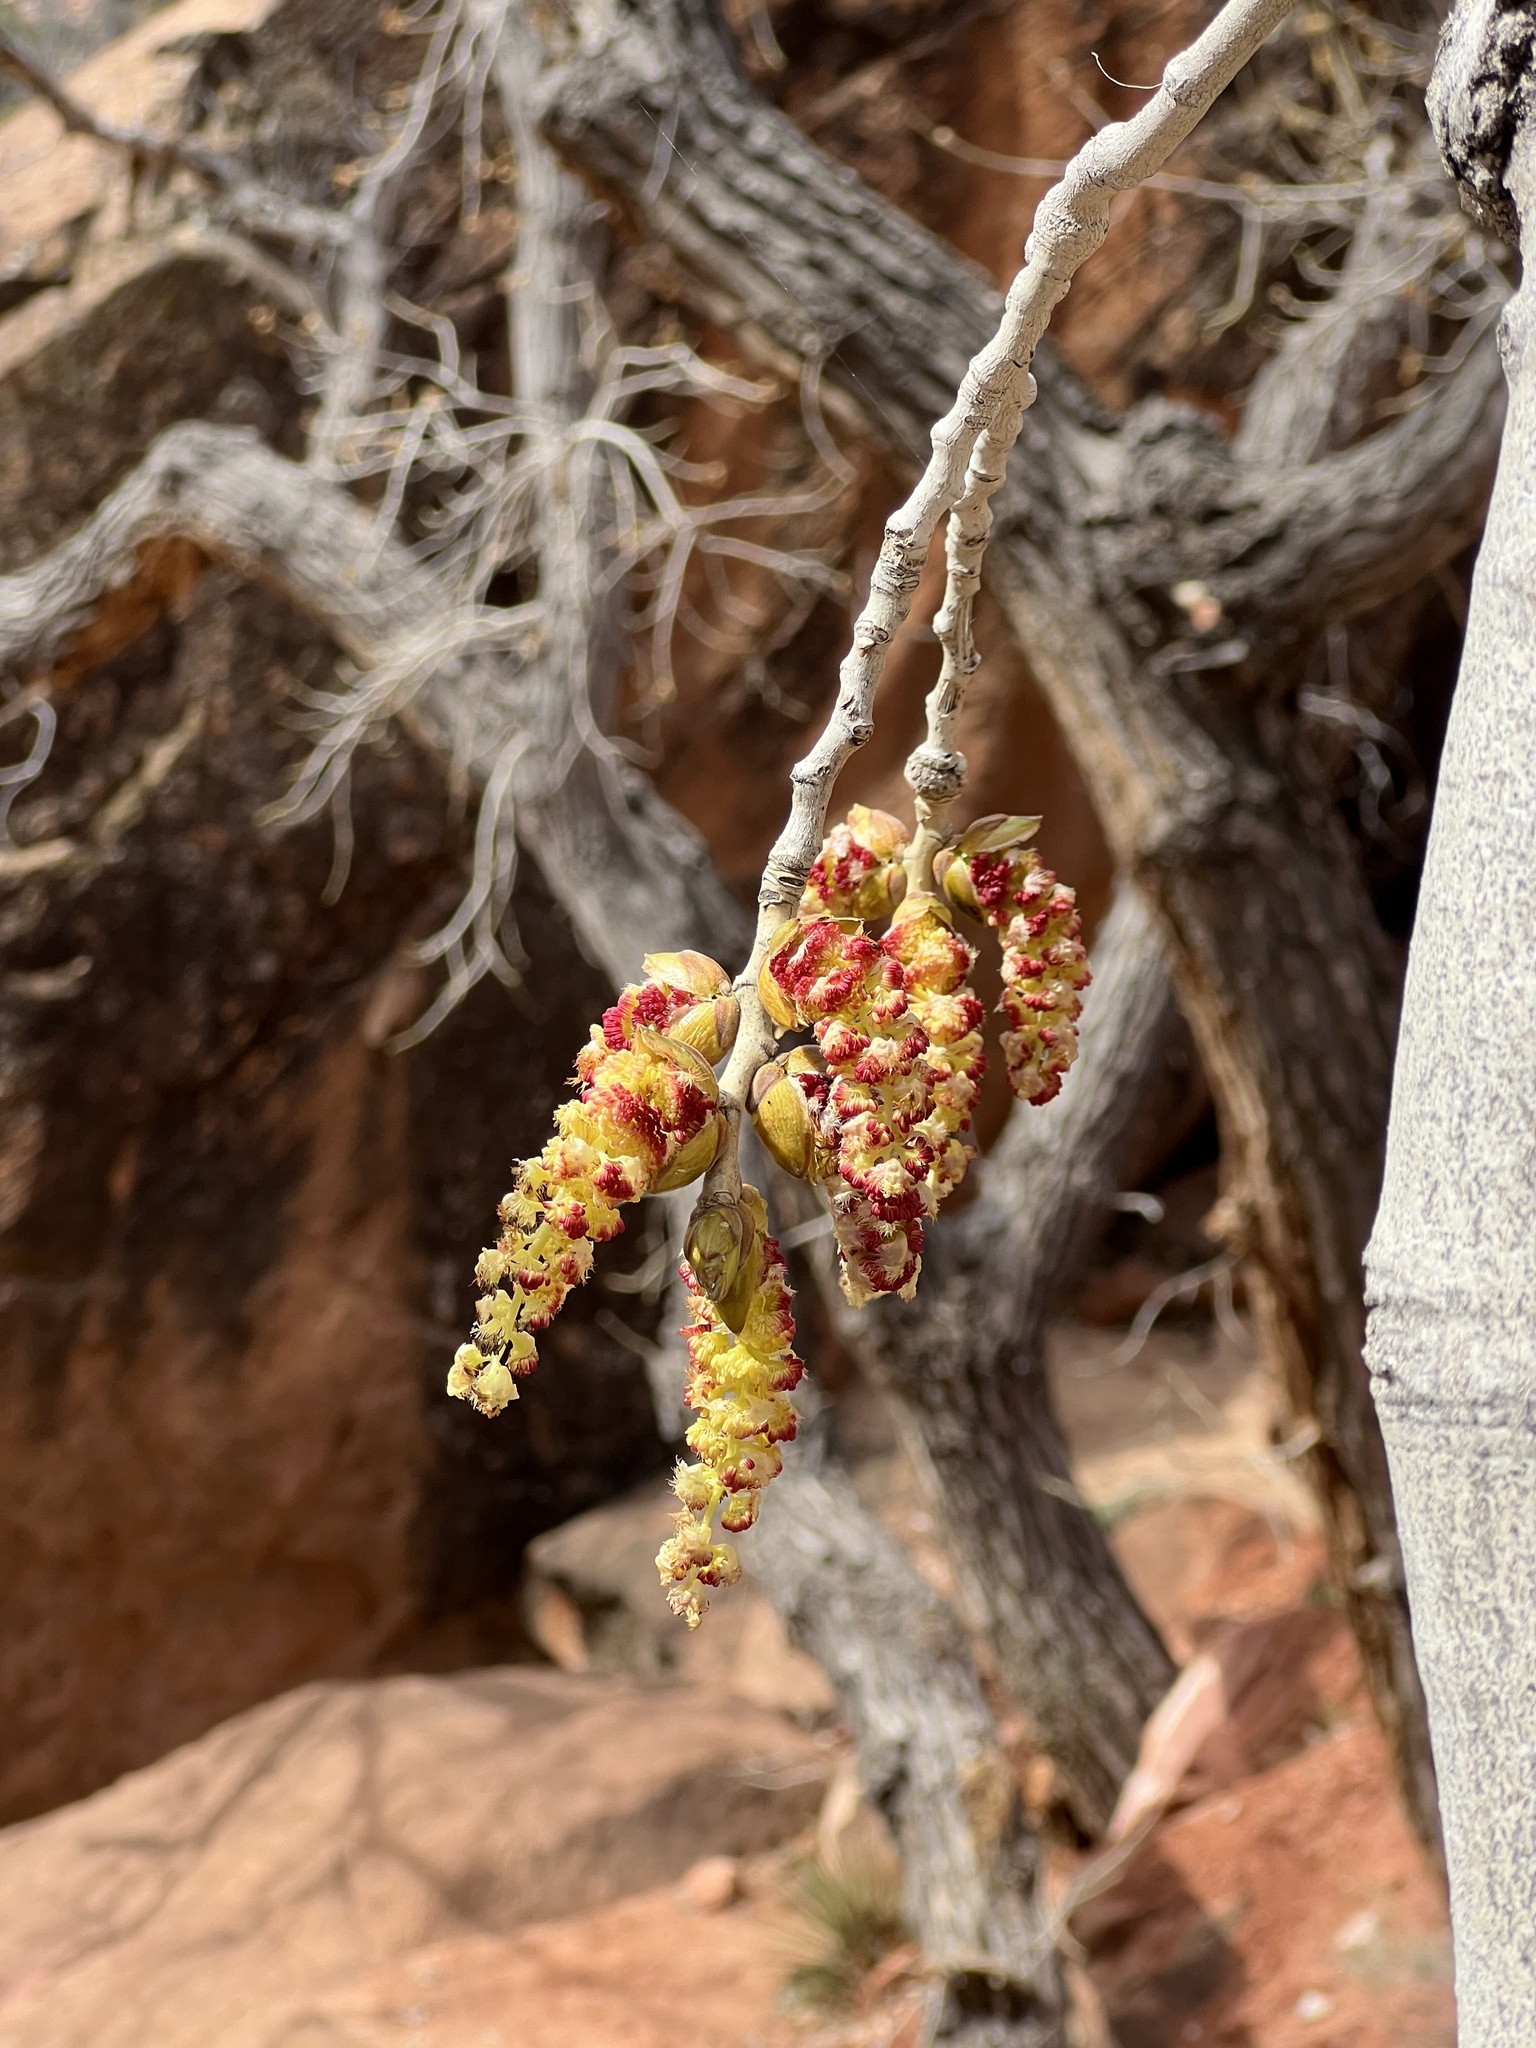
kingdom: Plantae
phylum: Tracheophyta
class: Magnoliopsida
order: Malpighiales
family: Salicaceae
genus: Populus
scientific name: Populus fremontii
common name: Fremont's cottonwood
